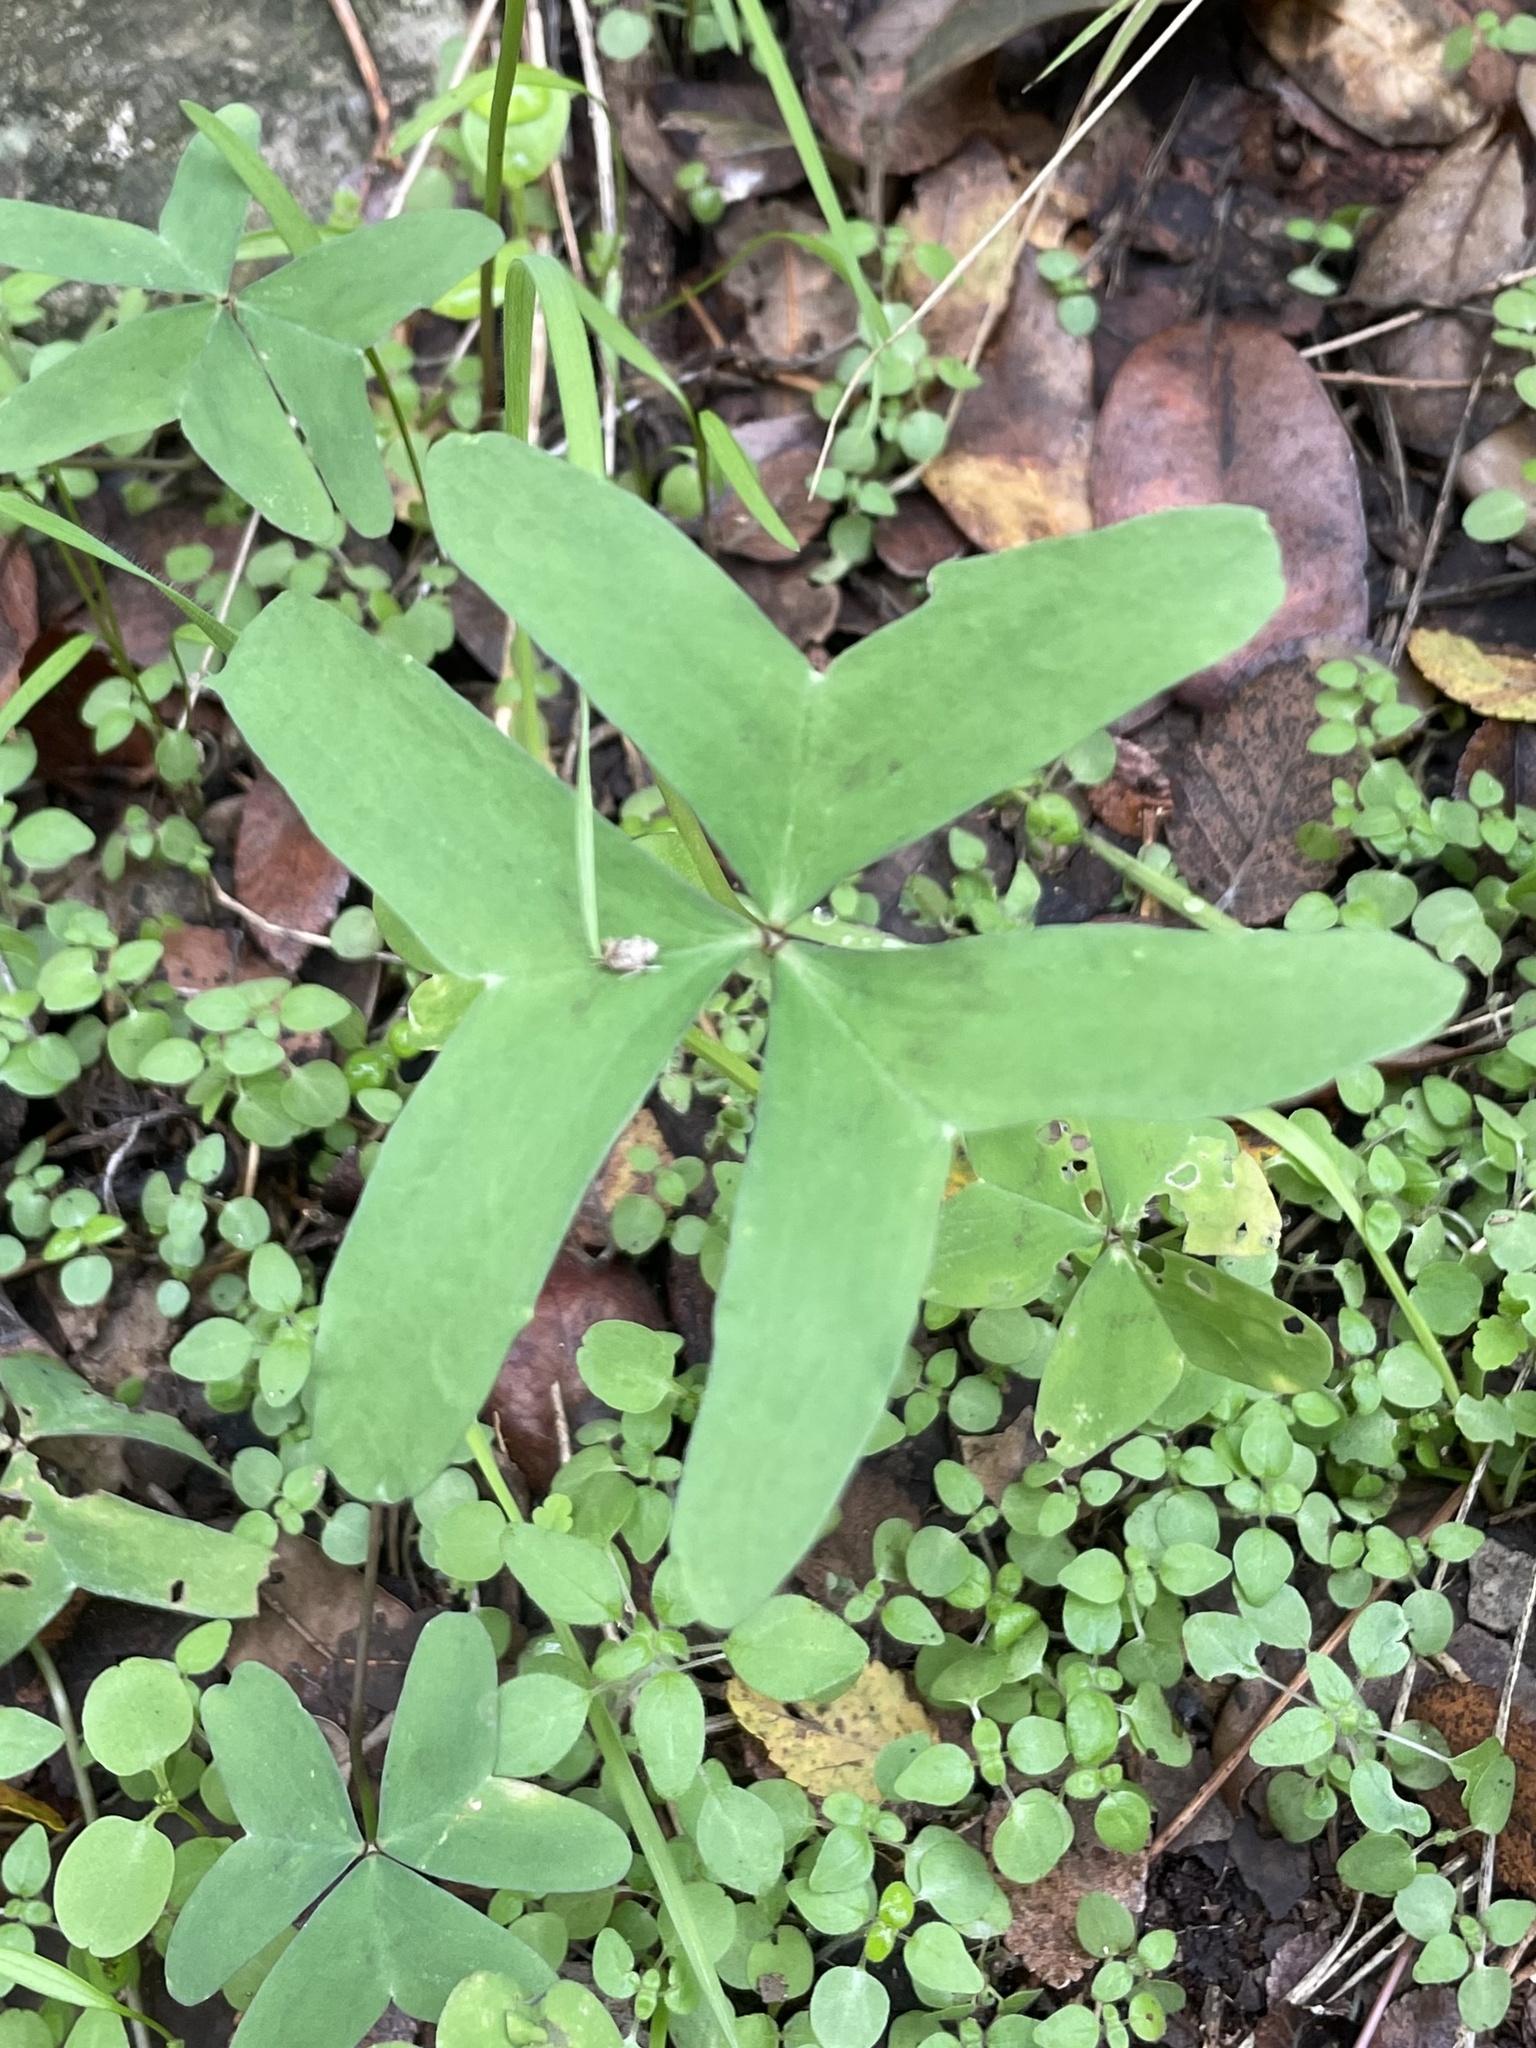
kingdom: Plantae
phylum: Tracheophyta
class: Magnoliopsida
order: Oxalidales
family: Oxalidaceae
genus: Oxalis
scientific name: Oxalis drummondii
